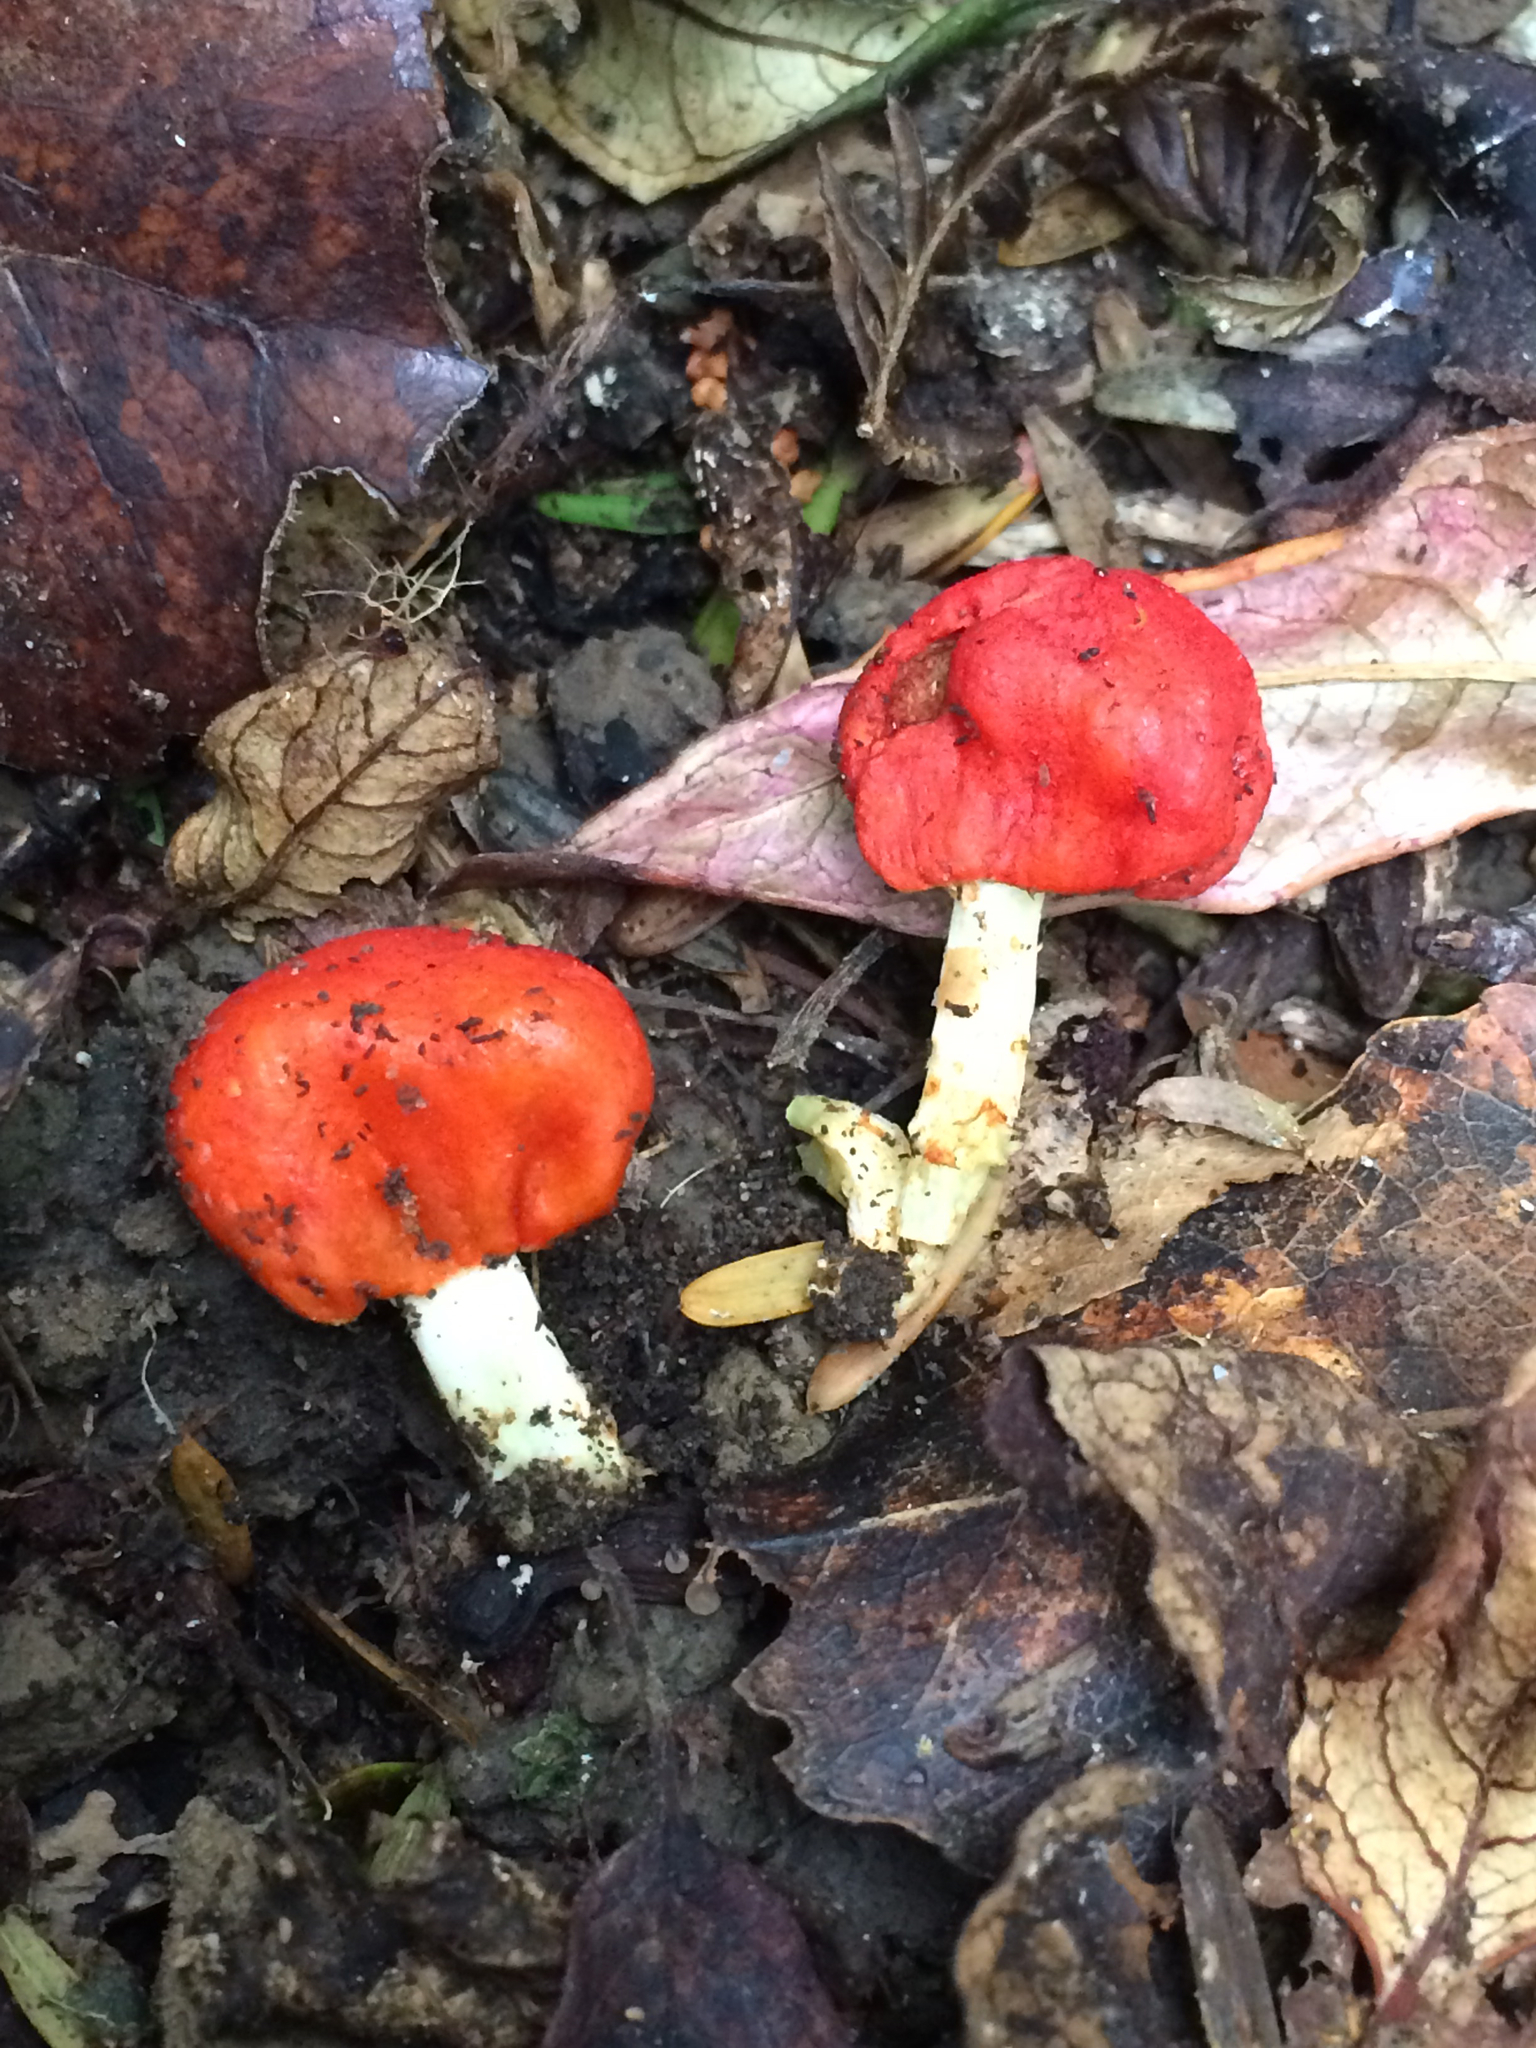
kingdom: Fungi
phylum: Basidiomycota
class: Agaricomycetes
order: Agaricales
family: Strophariaceae
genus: Leratiomyces
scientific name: Leratiomyces erythrocephalus
